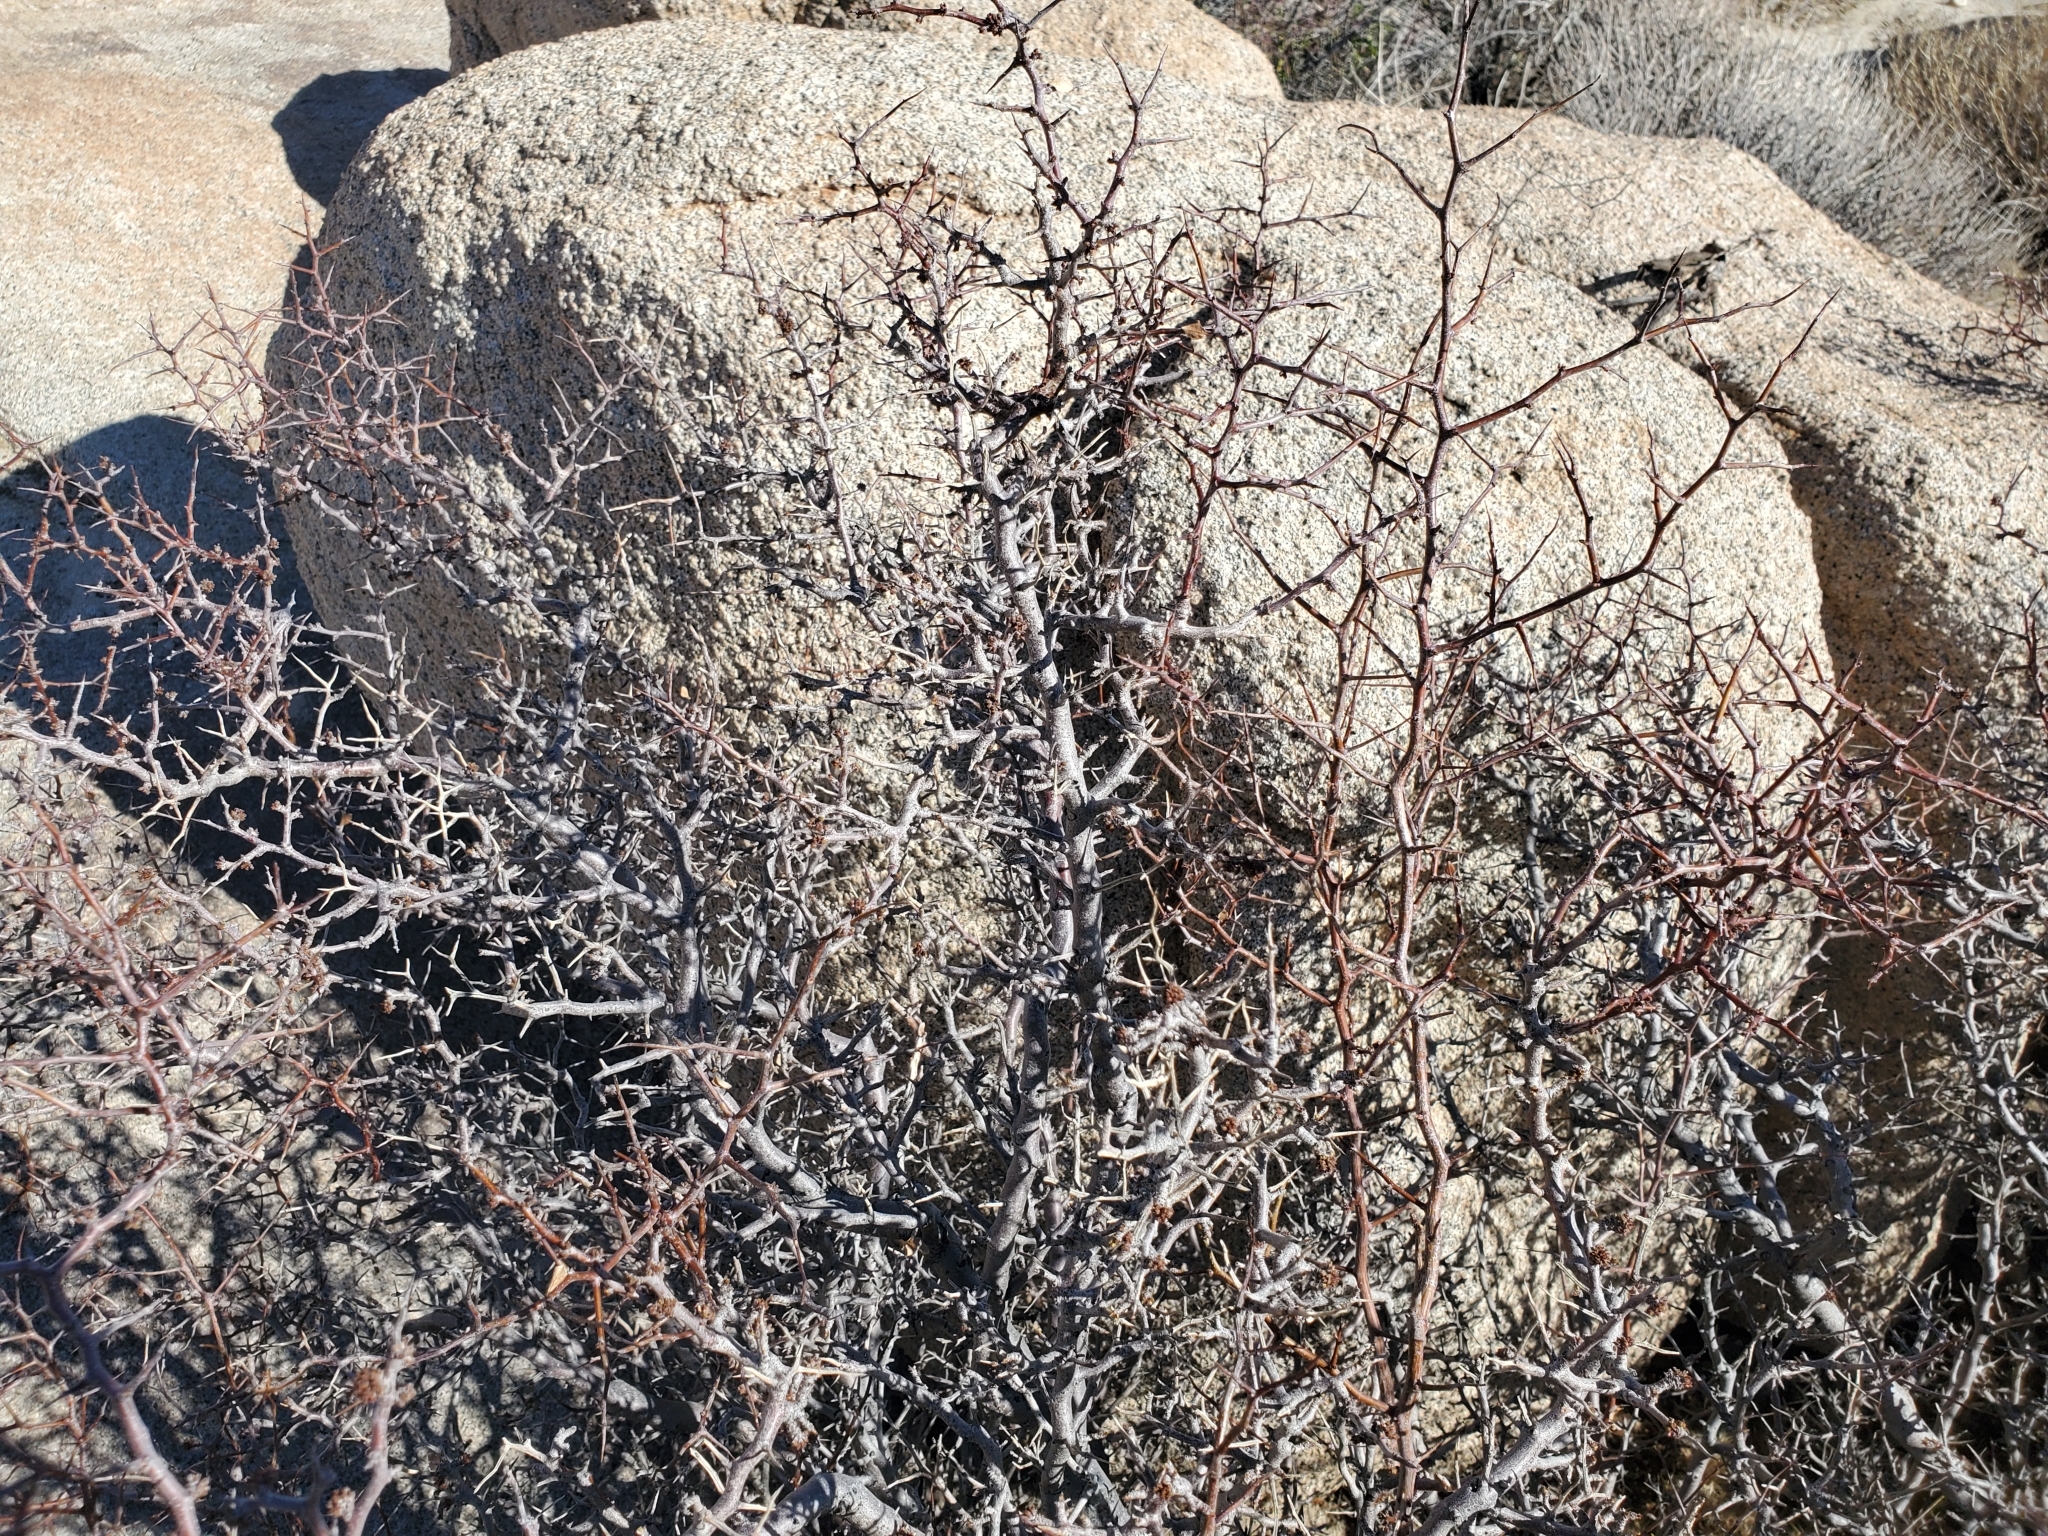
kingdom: Plantae
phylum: Tracheophyta
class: Magnoliopsida
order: Rosales
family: Rosaceae
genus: Prunus
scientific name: Prunus fremontii
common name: Desert apricot
